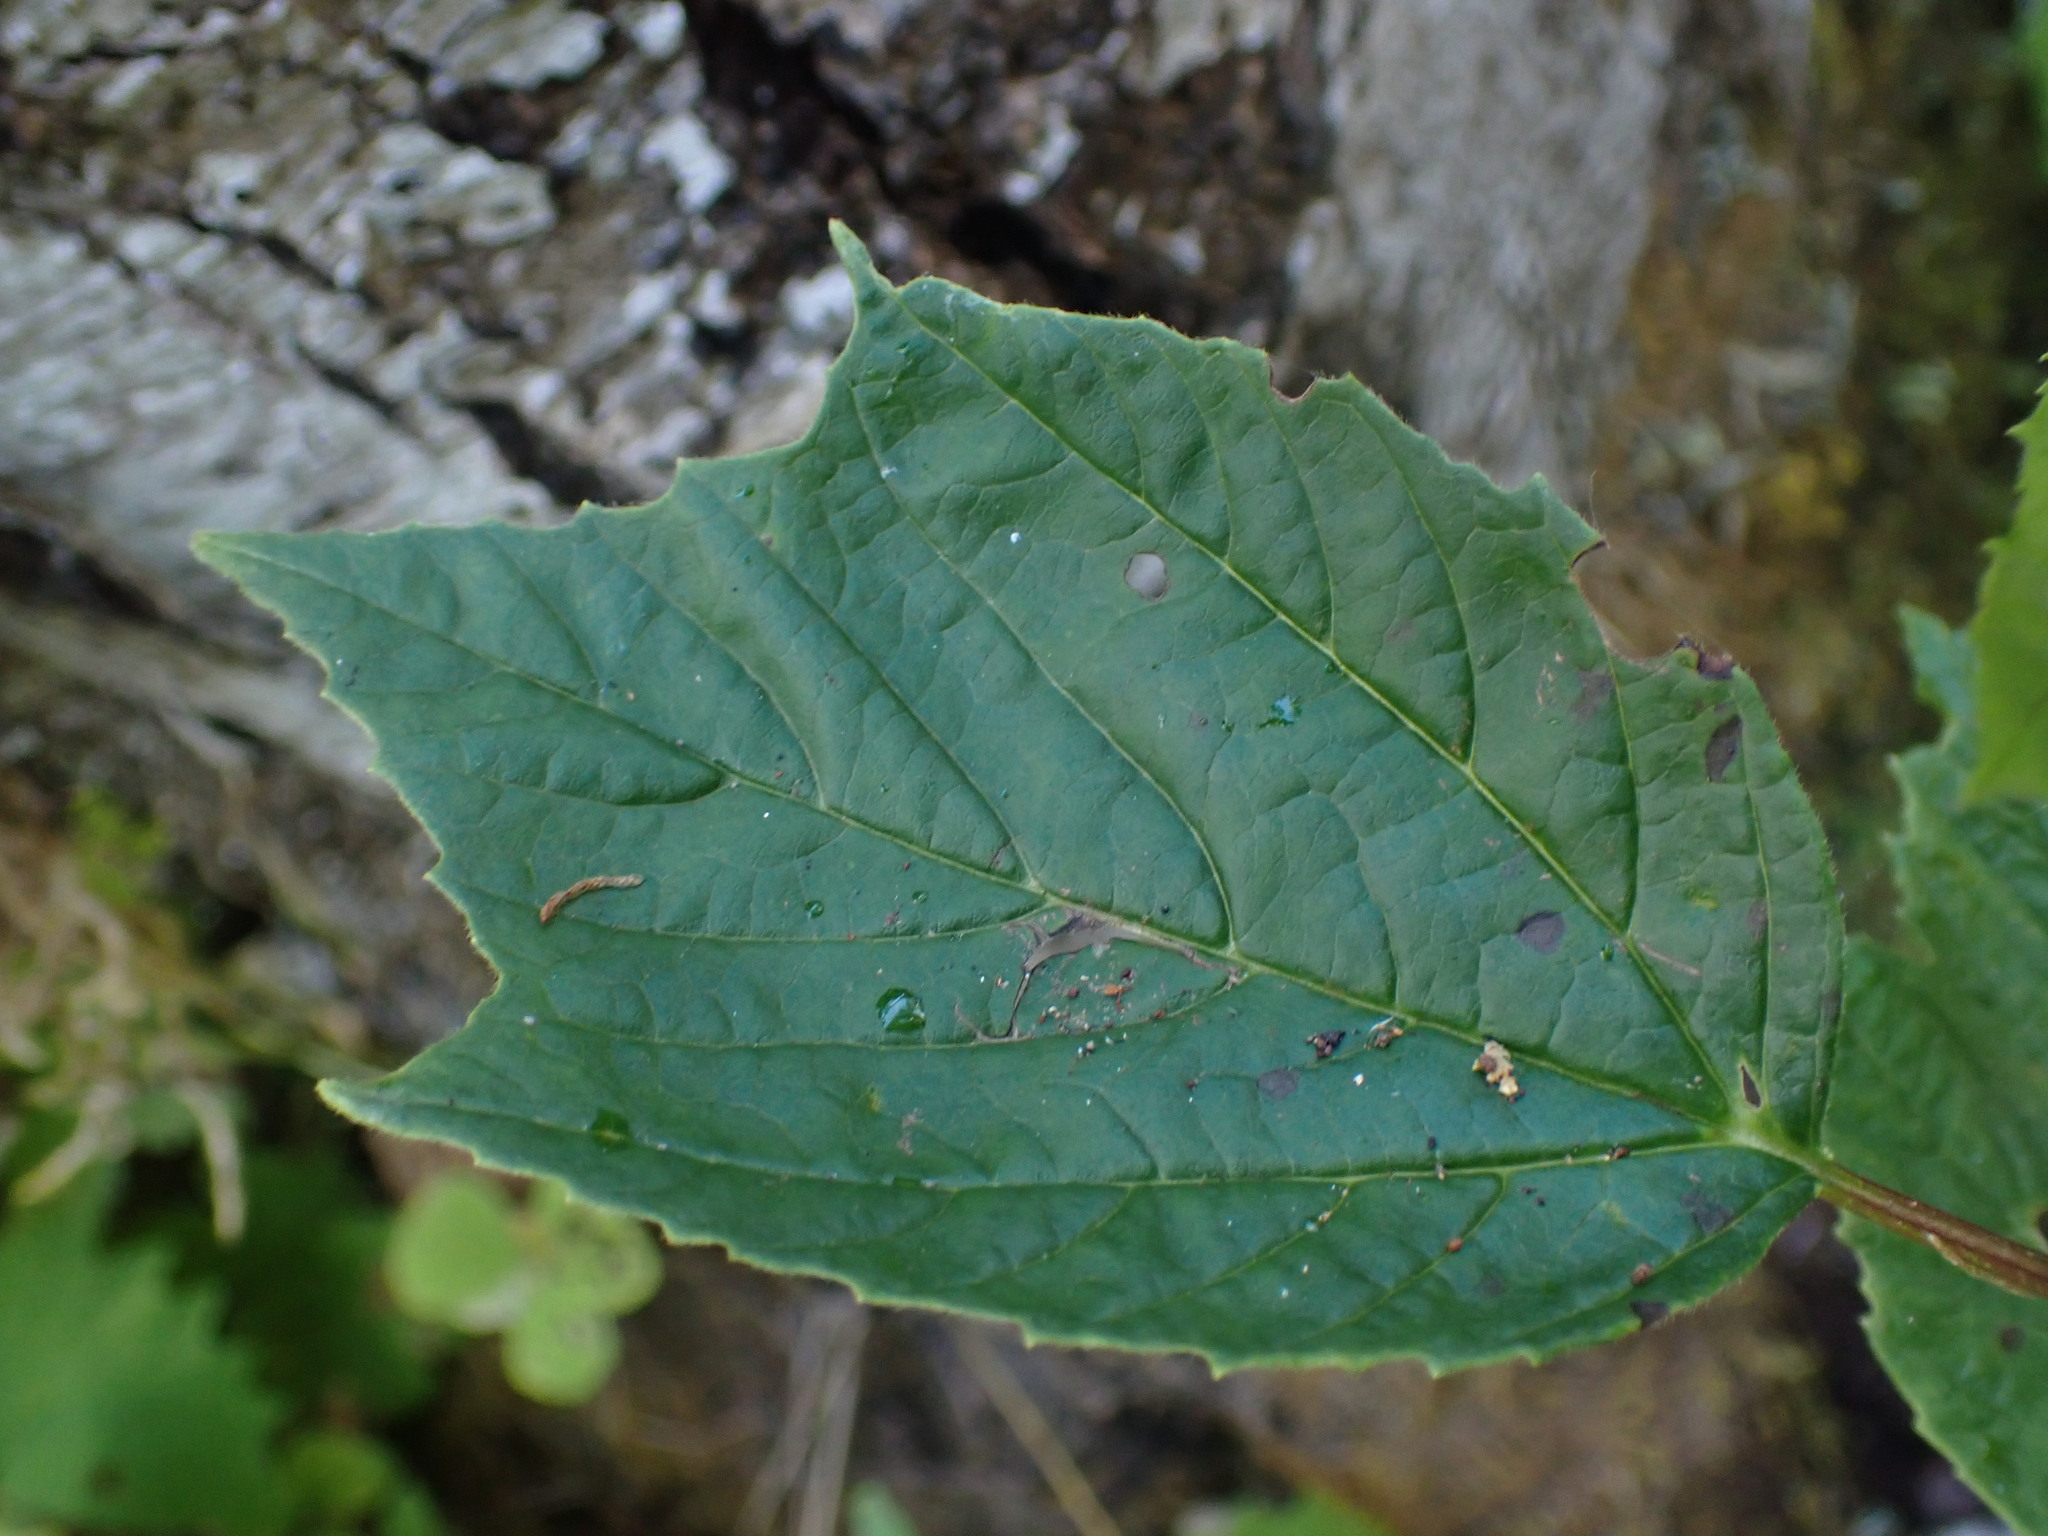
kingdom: Plantae
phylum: Tracheophyta
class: Magnoliopsida
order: Dipsacales
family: Viburnaceae
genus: Viburnum
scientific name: Viburnum edule
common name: Mooseberry
